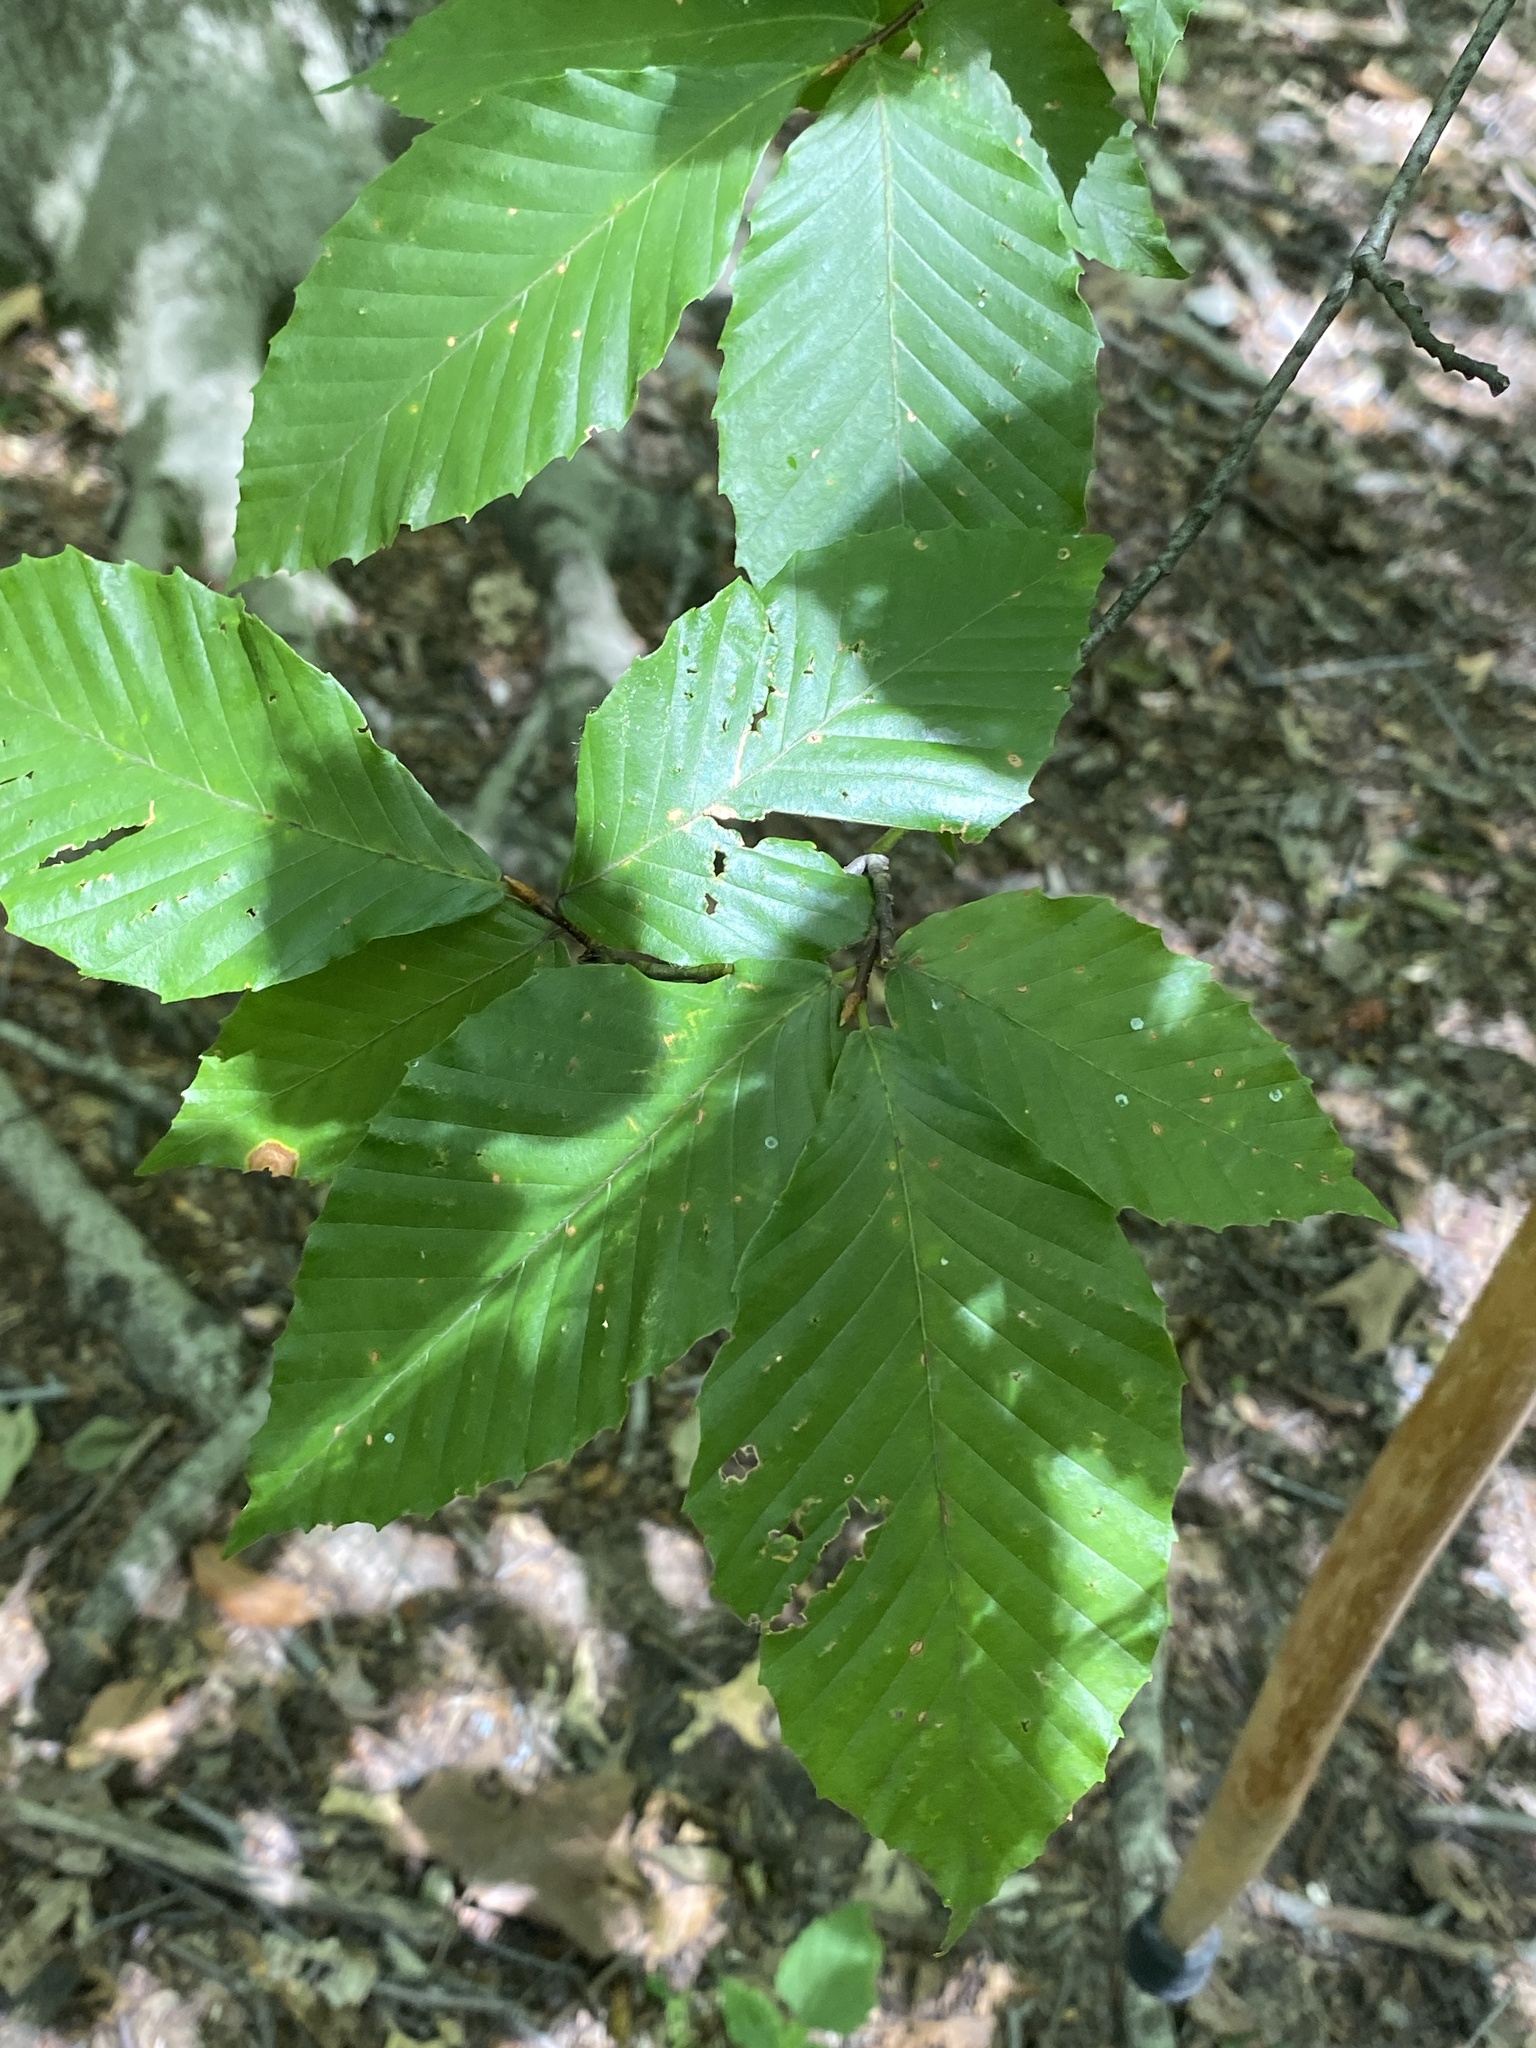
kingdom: Plantae
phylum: Tracheophyta
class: Magnoliopsida
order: Fagales
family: Fagaceae
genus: Fagus
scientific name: Fagus grandifolia
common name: American beech
